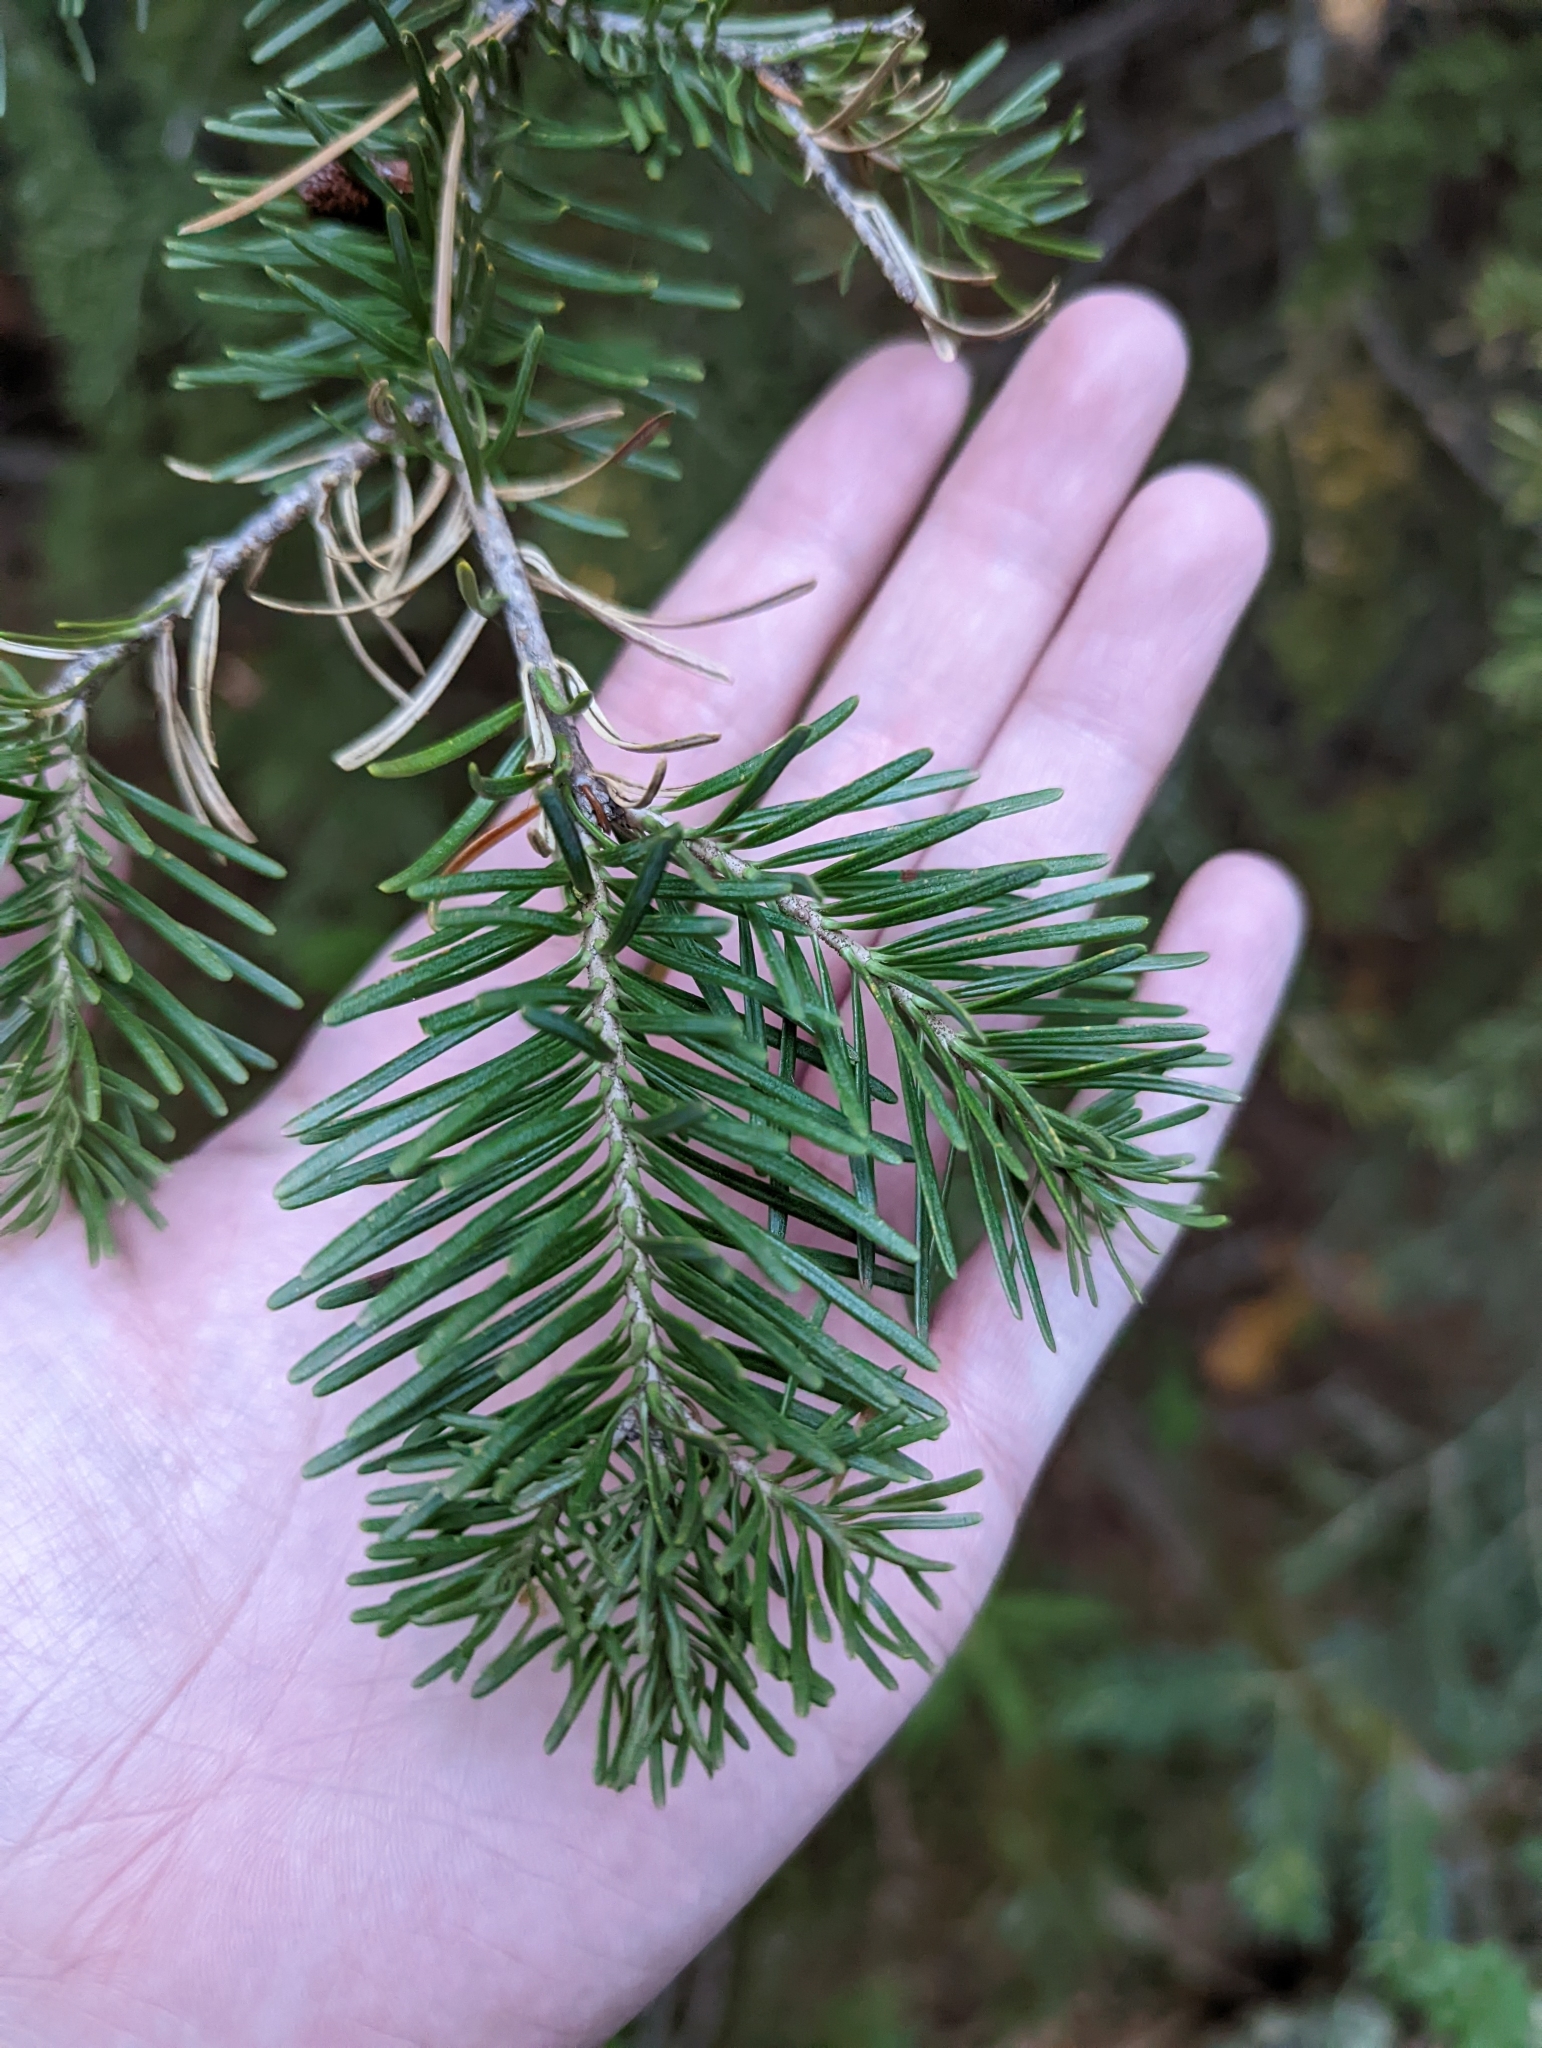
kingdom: Plantae
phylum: Tracheophyta
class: Pinopsida
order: Pinales
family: Pinaceae
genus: Abies
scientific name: Abies lasiocarpa
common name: Subalpine fir
